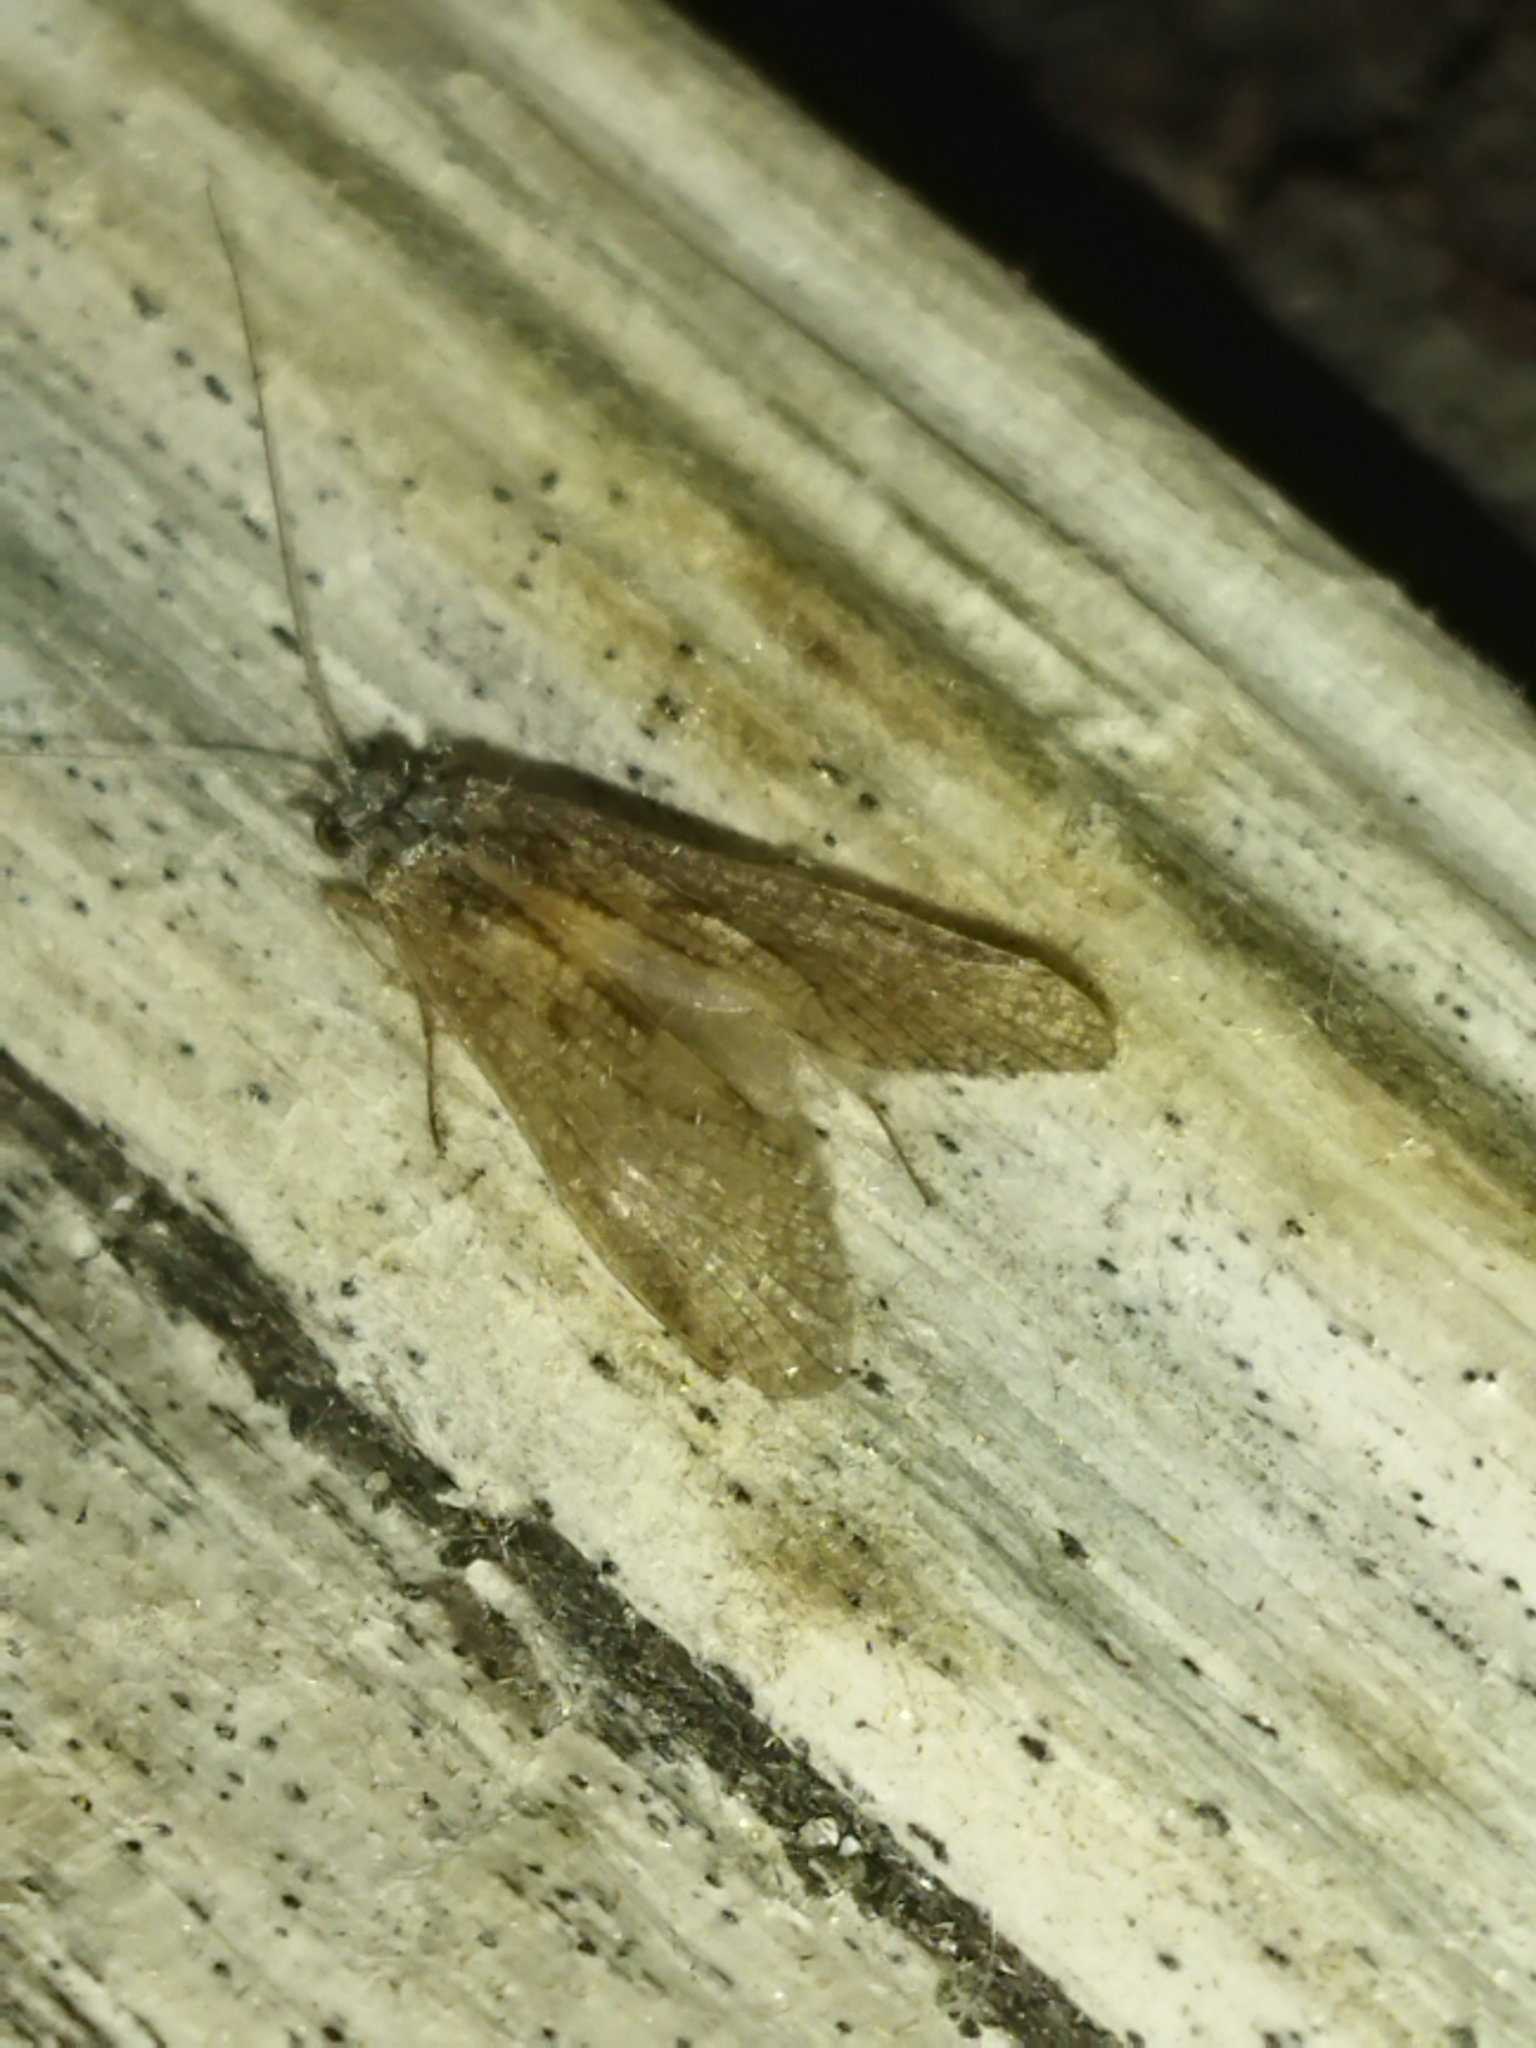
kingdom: Animalia
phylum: Arthropoda
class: Insecta
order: Trichoptera
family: Hydropsychidae
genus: Hydropsyche
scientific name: Hydropsyche
